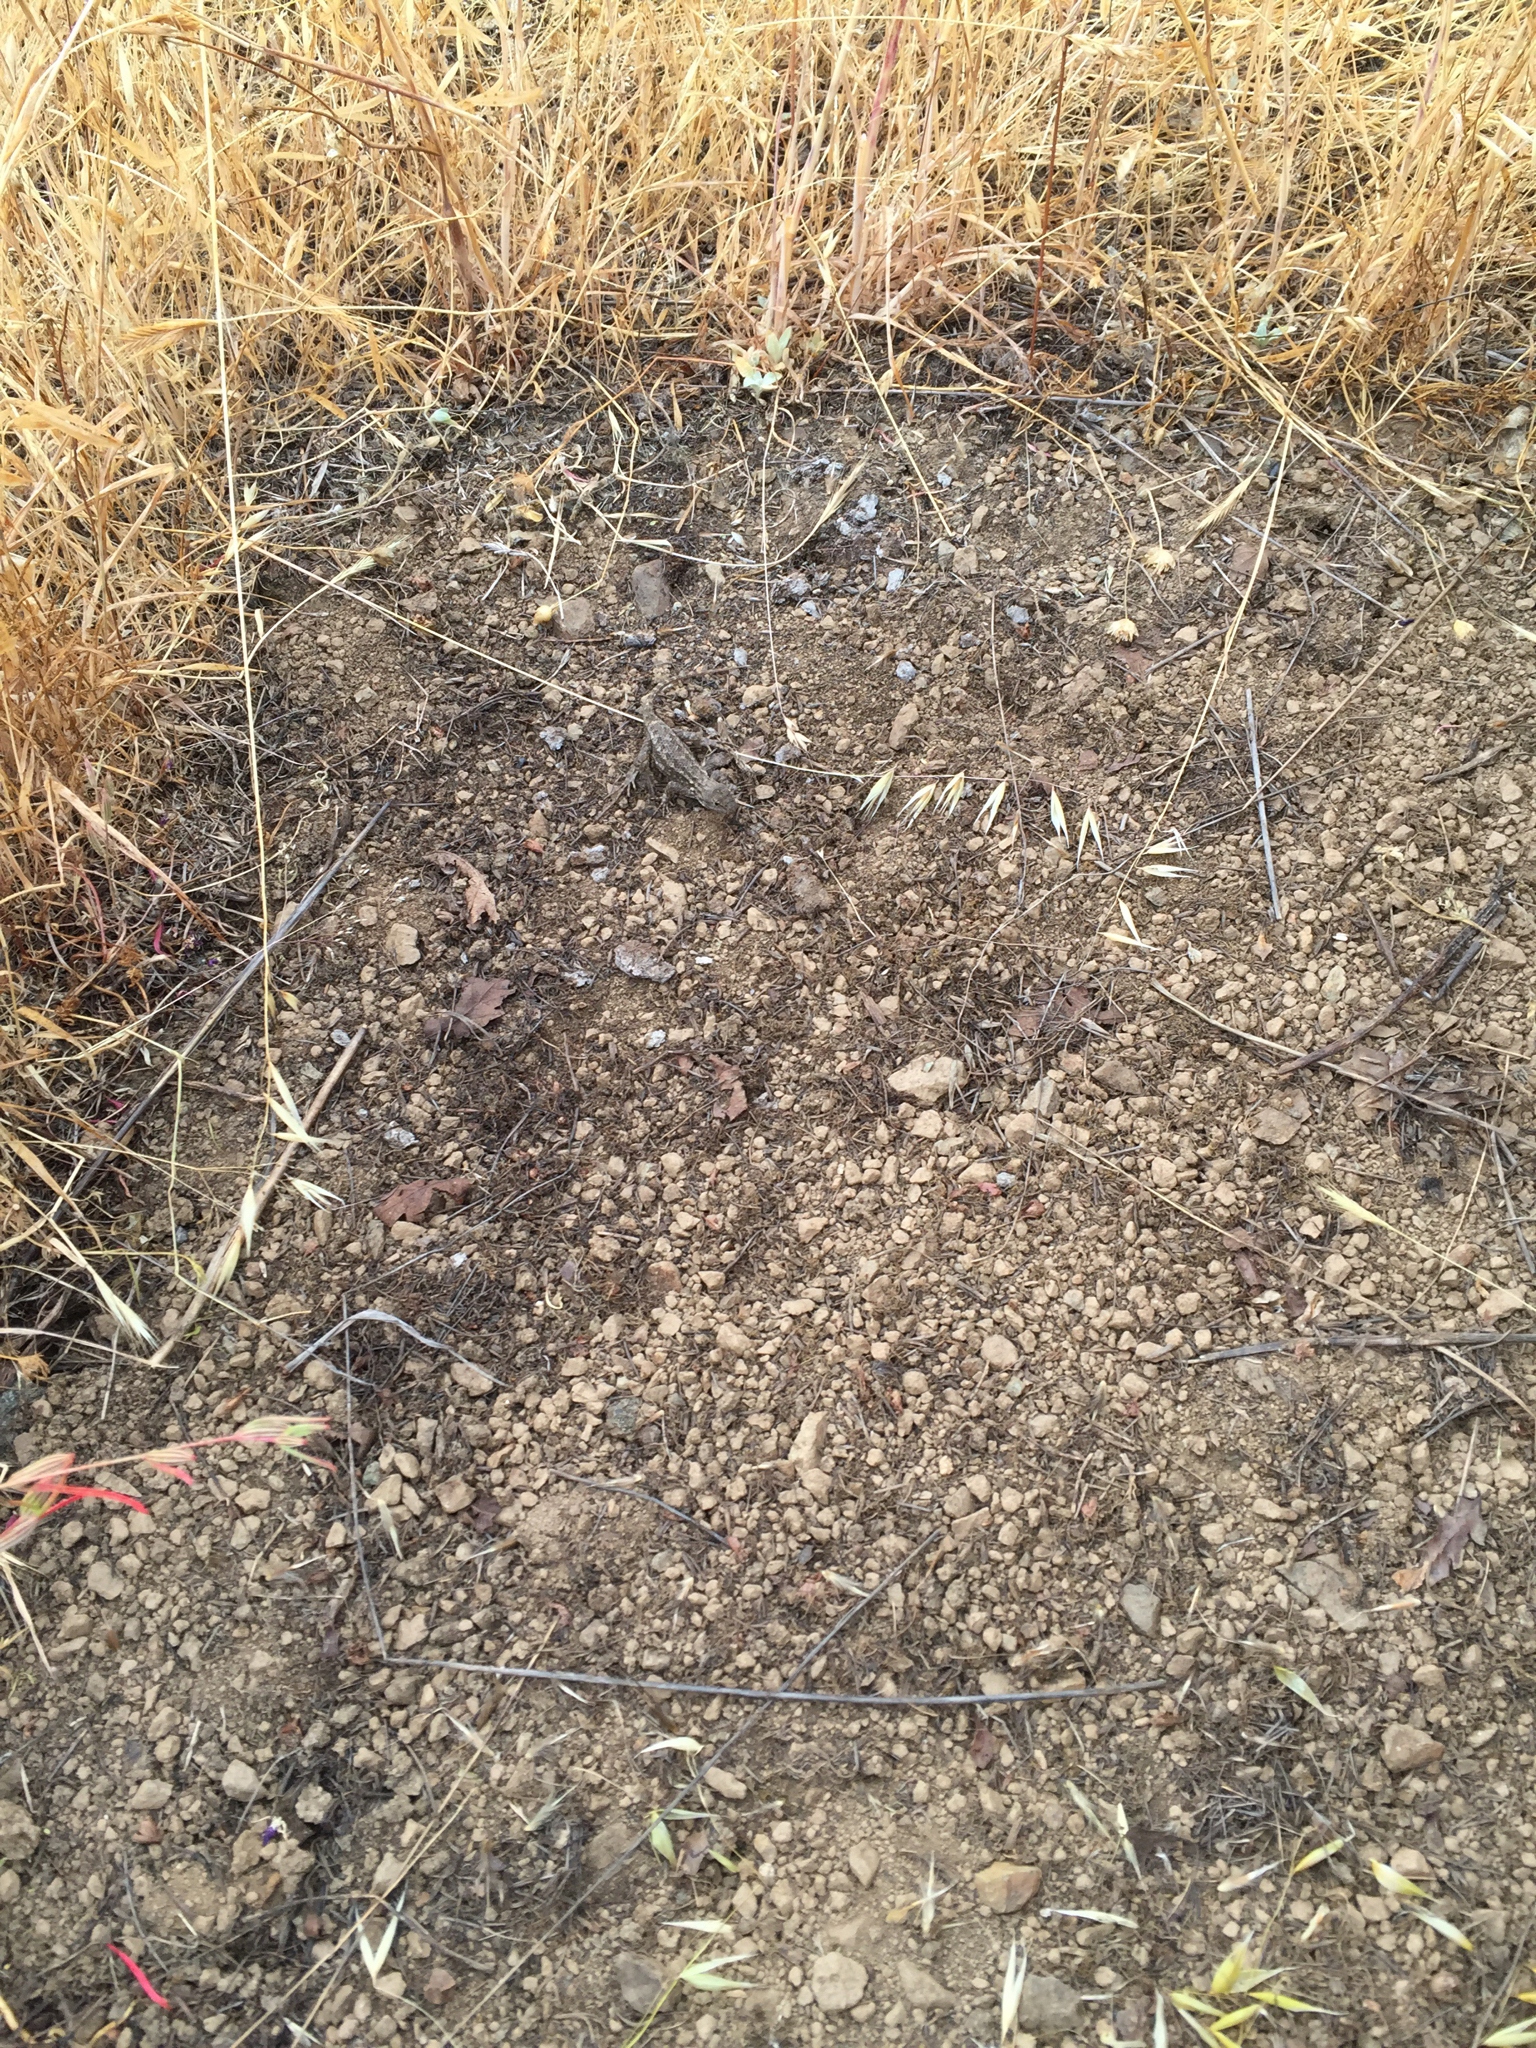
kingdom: Animalia
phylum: Chordata
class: Squamata
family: Phrynosomatidae
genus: Sceloporus
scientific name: Sceloporus occidentalis
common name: Western fence lizard
